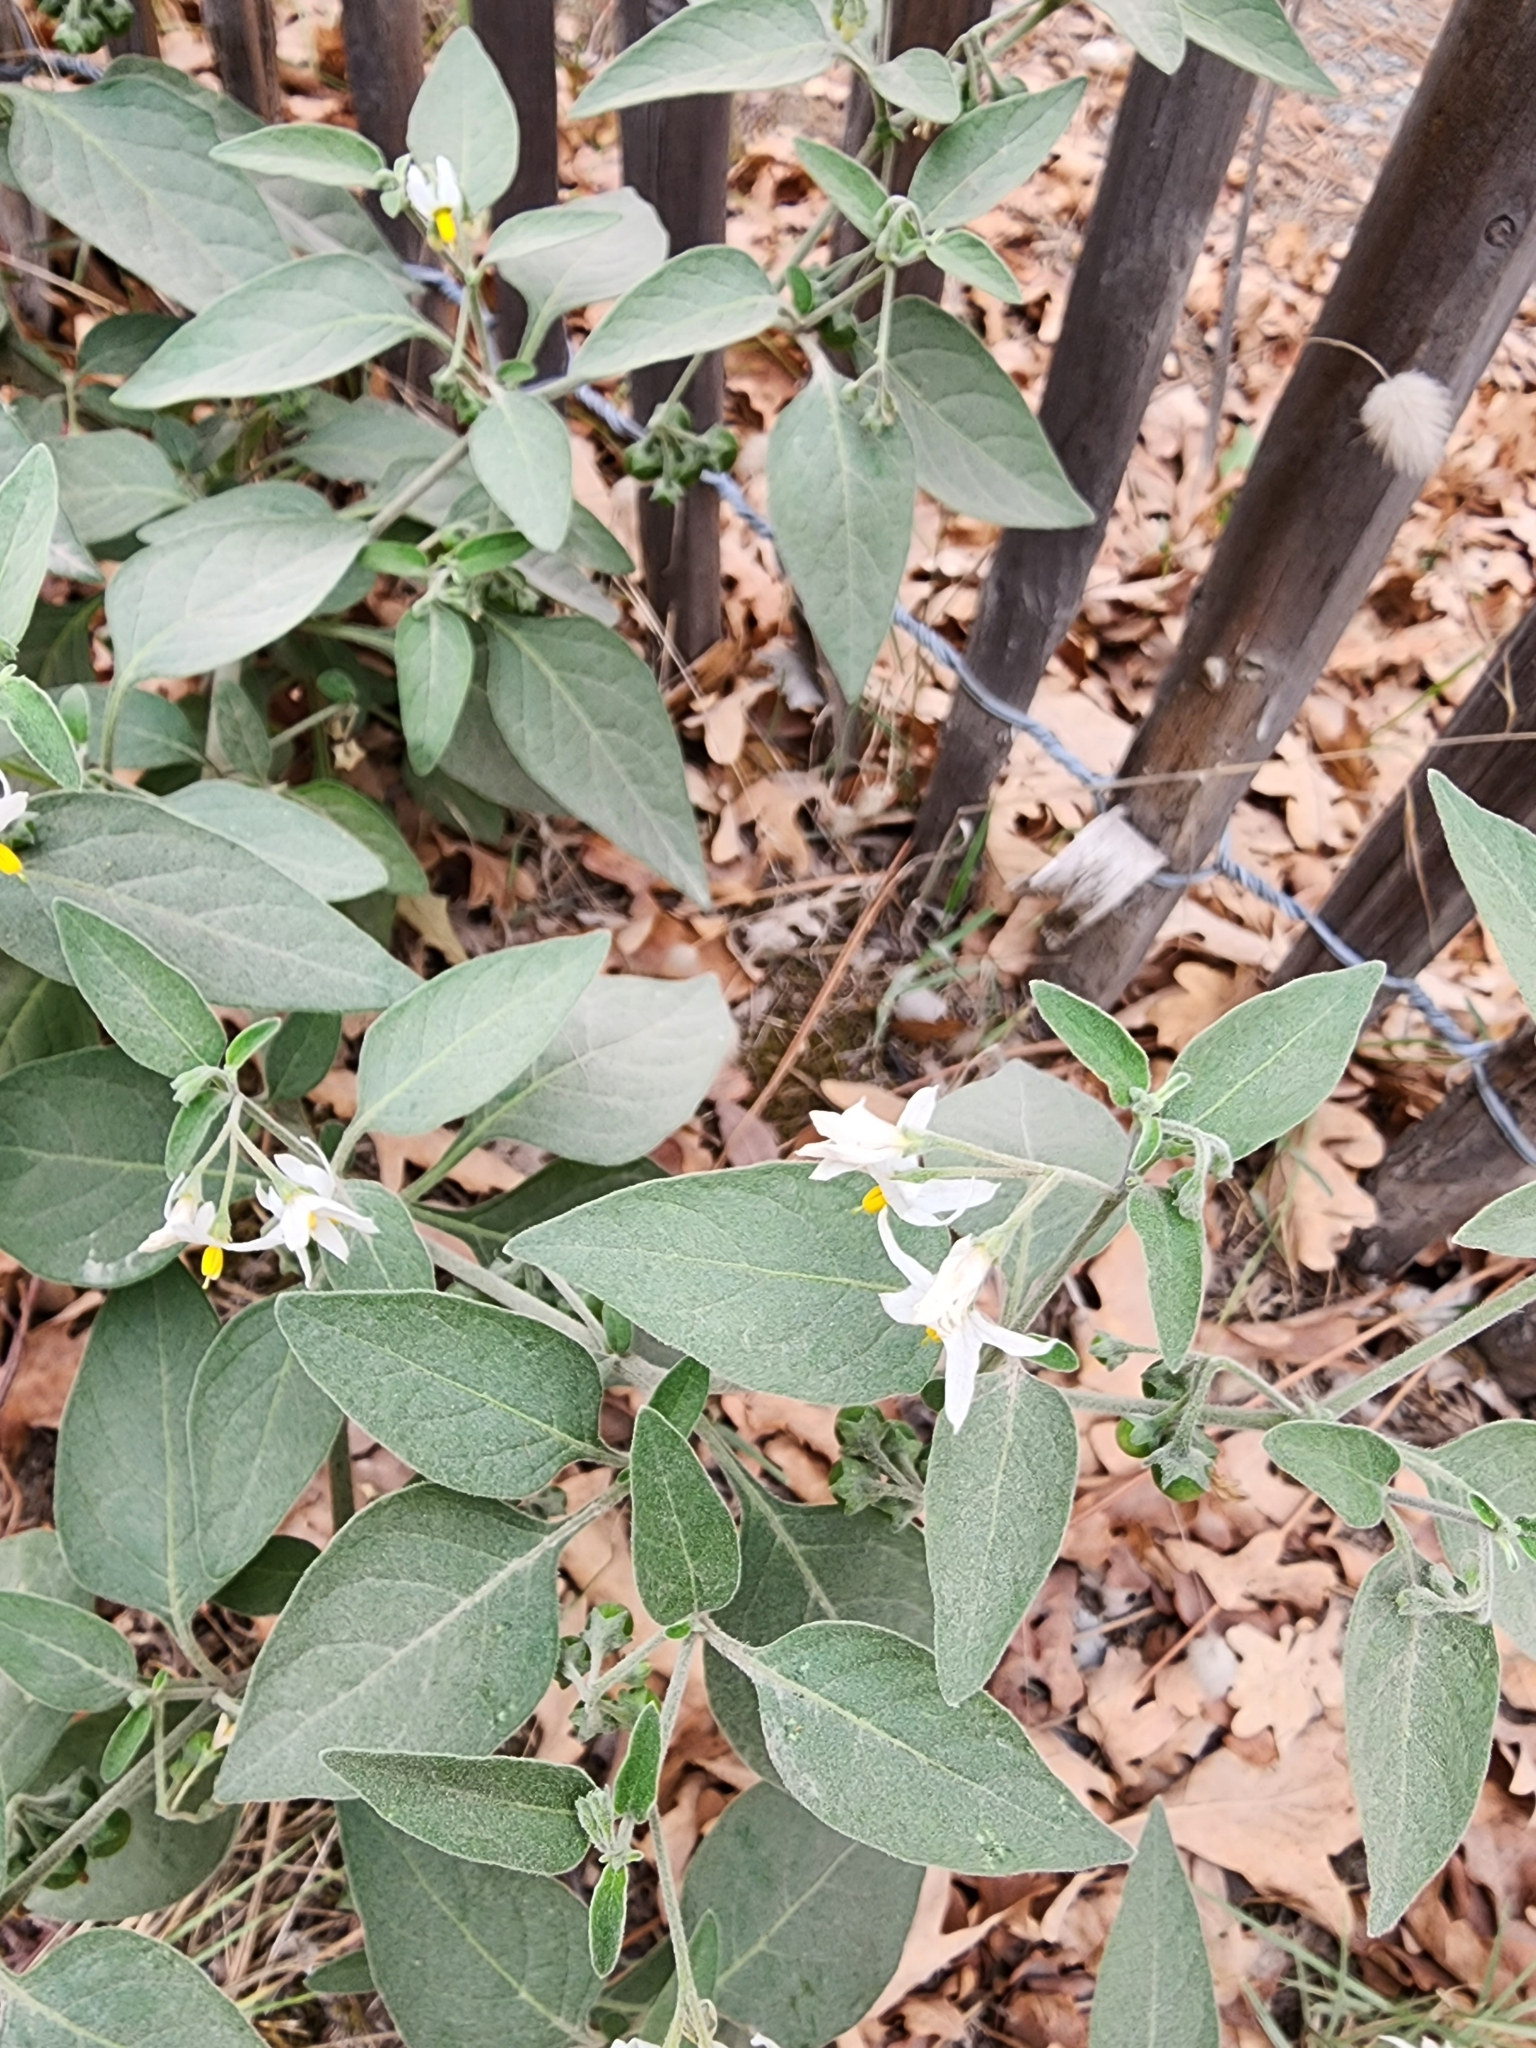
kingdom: Plantae
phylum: Tracheophyta
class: Magnoliopsida
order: Solanales
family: Solanaceae
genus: Solanum
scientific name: Solanum chenopodioides
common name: Tall nightshade
